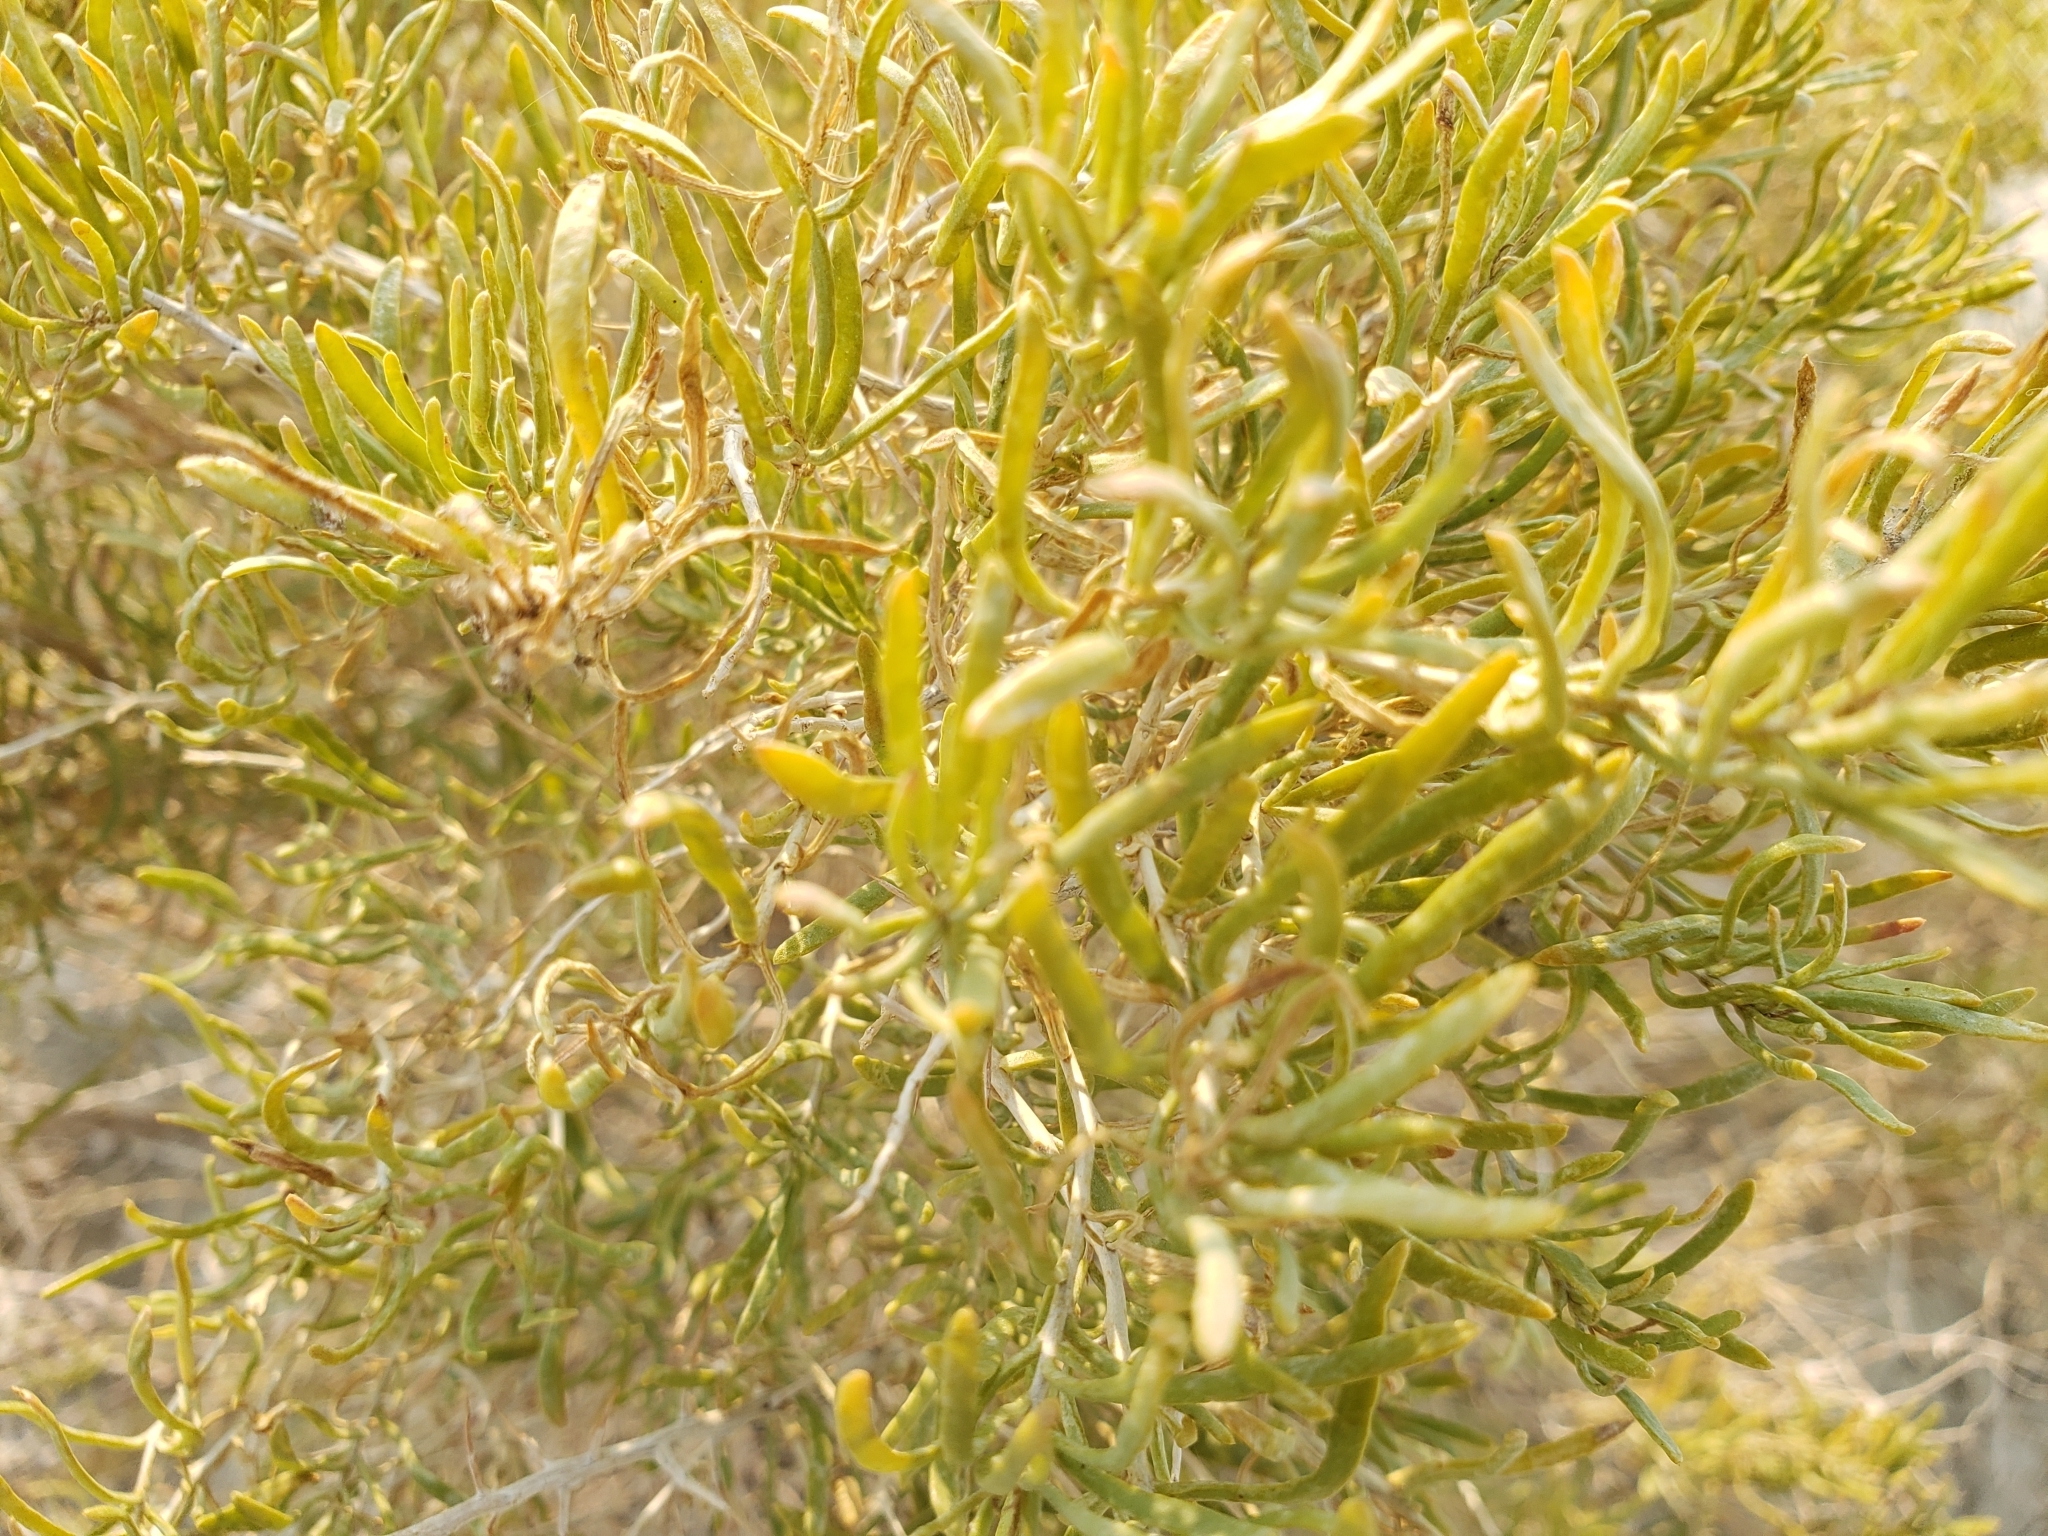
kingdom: Plantae
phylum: Tracheophyta
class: Magnoliopsida
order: Caryophyllales
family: Sarcobataceae
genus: Sarcobatus
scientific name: Sarcobatus vermiculatus
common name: Greasewood
